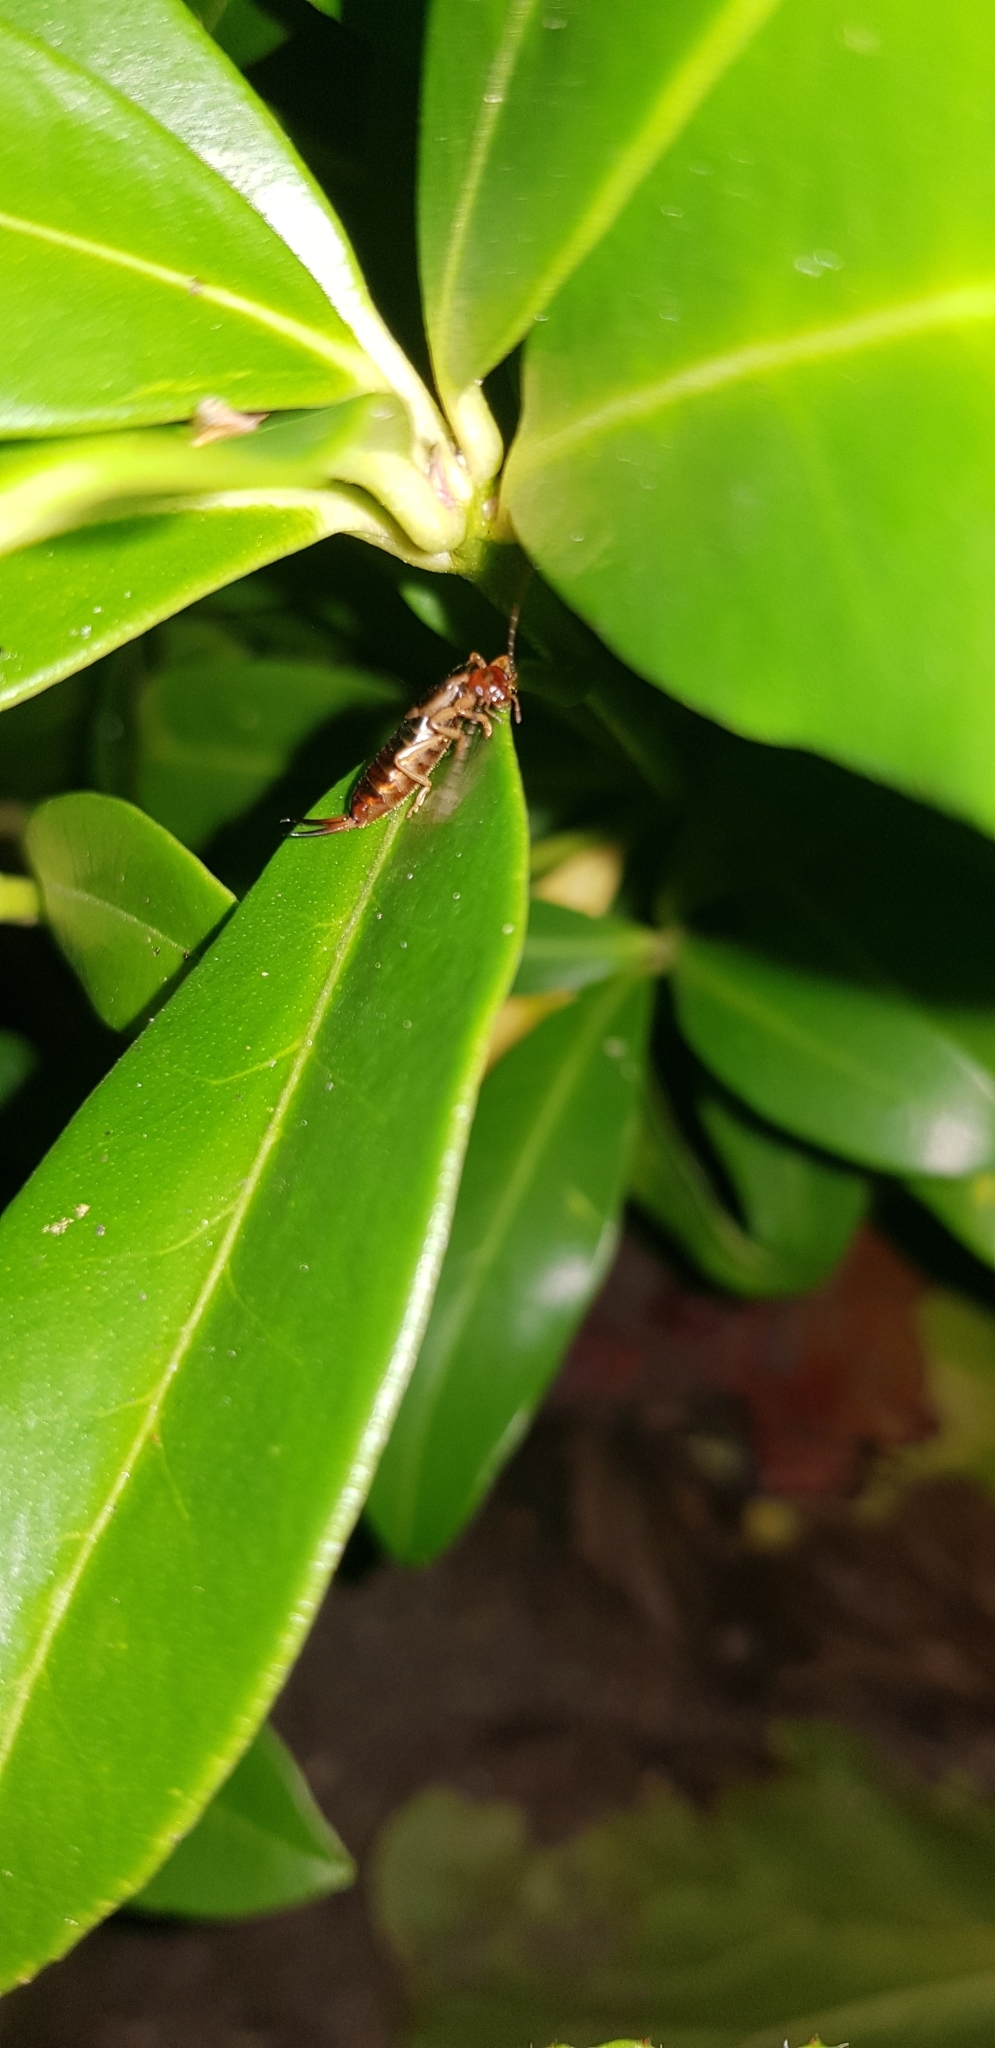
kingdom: Animalia
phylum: Arthropoda
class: Insecta
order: Dermaptera
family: Forficulidae
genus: Forficula
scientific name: Forficula
